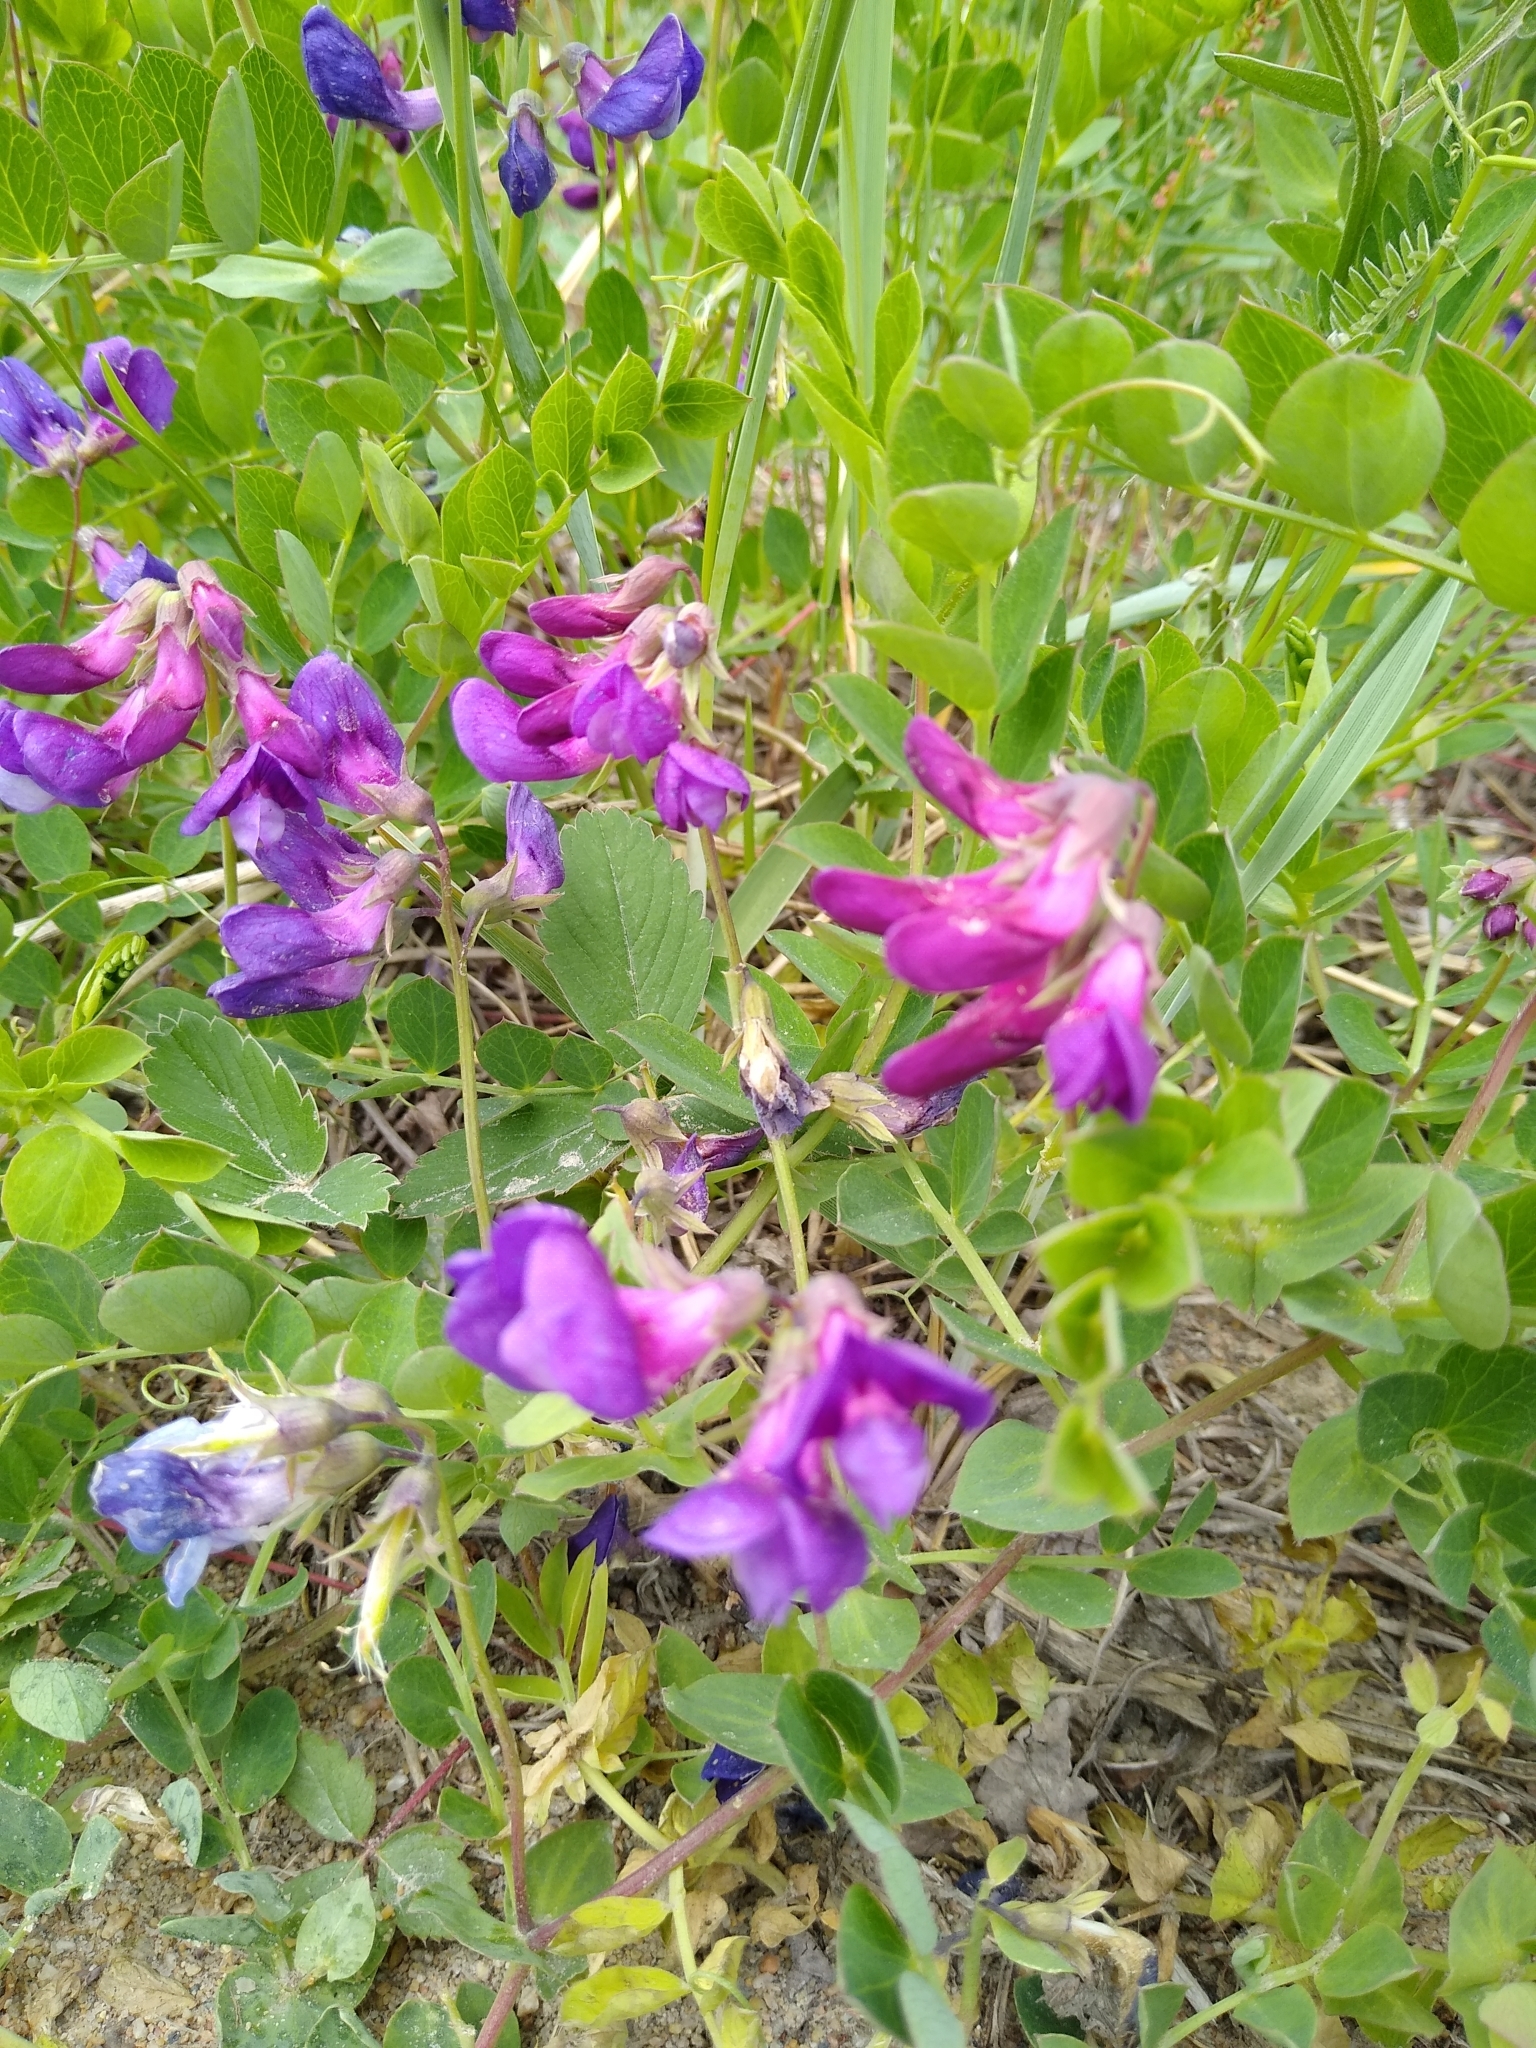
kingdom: Plantae
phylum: Tracheophyta
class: Magnoliopsida
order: Fabales
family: Fabaceae
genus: Lathyrus
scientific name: Lathyrus japonicus
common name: Sea pea
